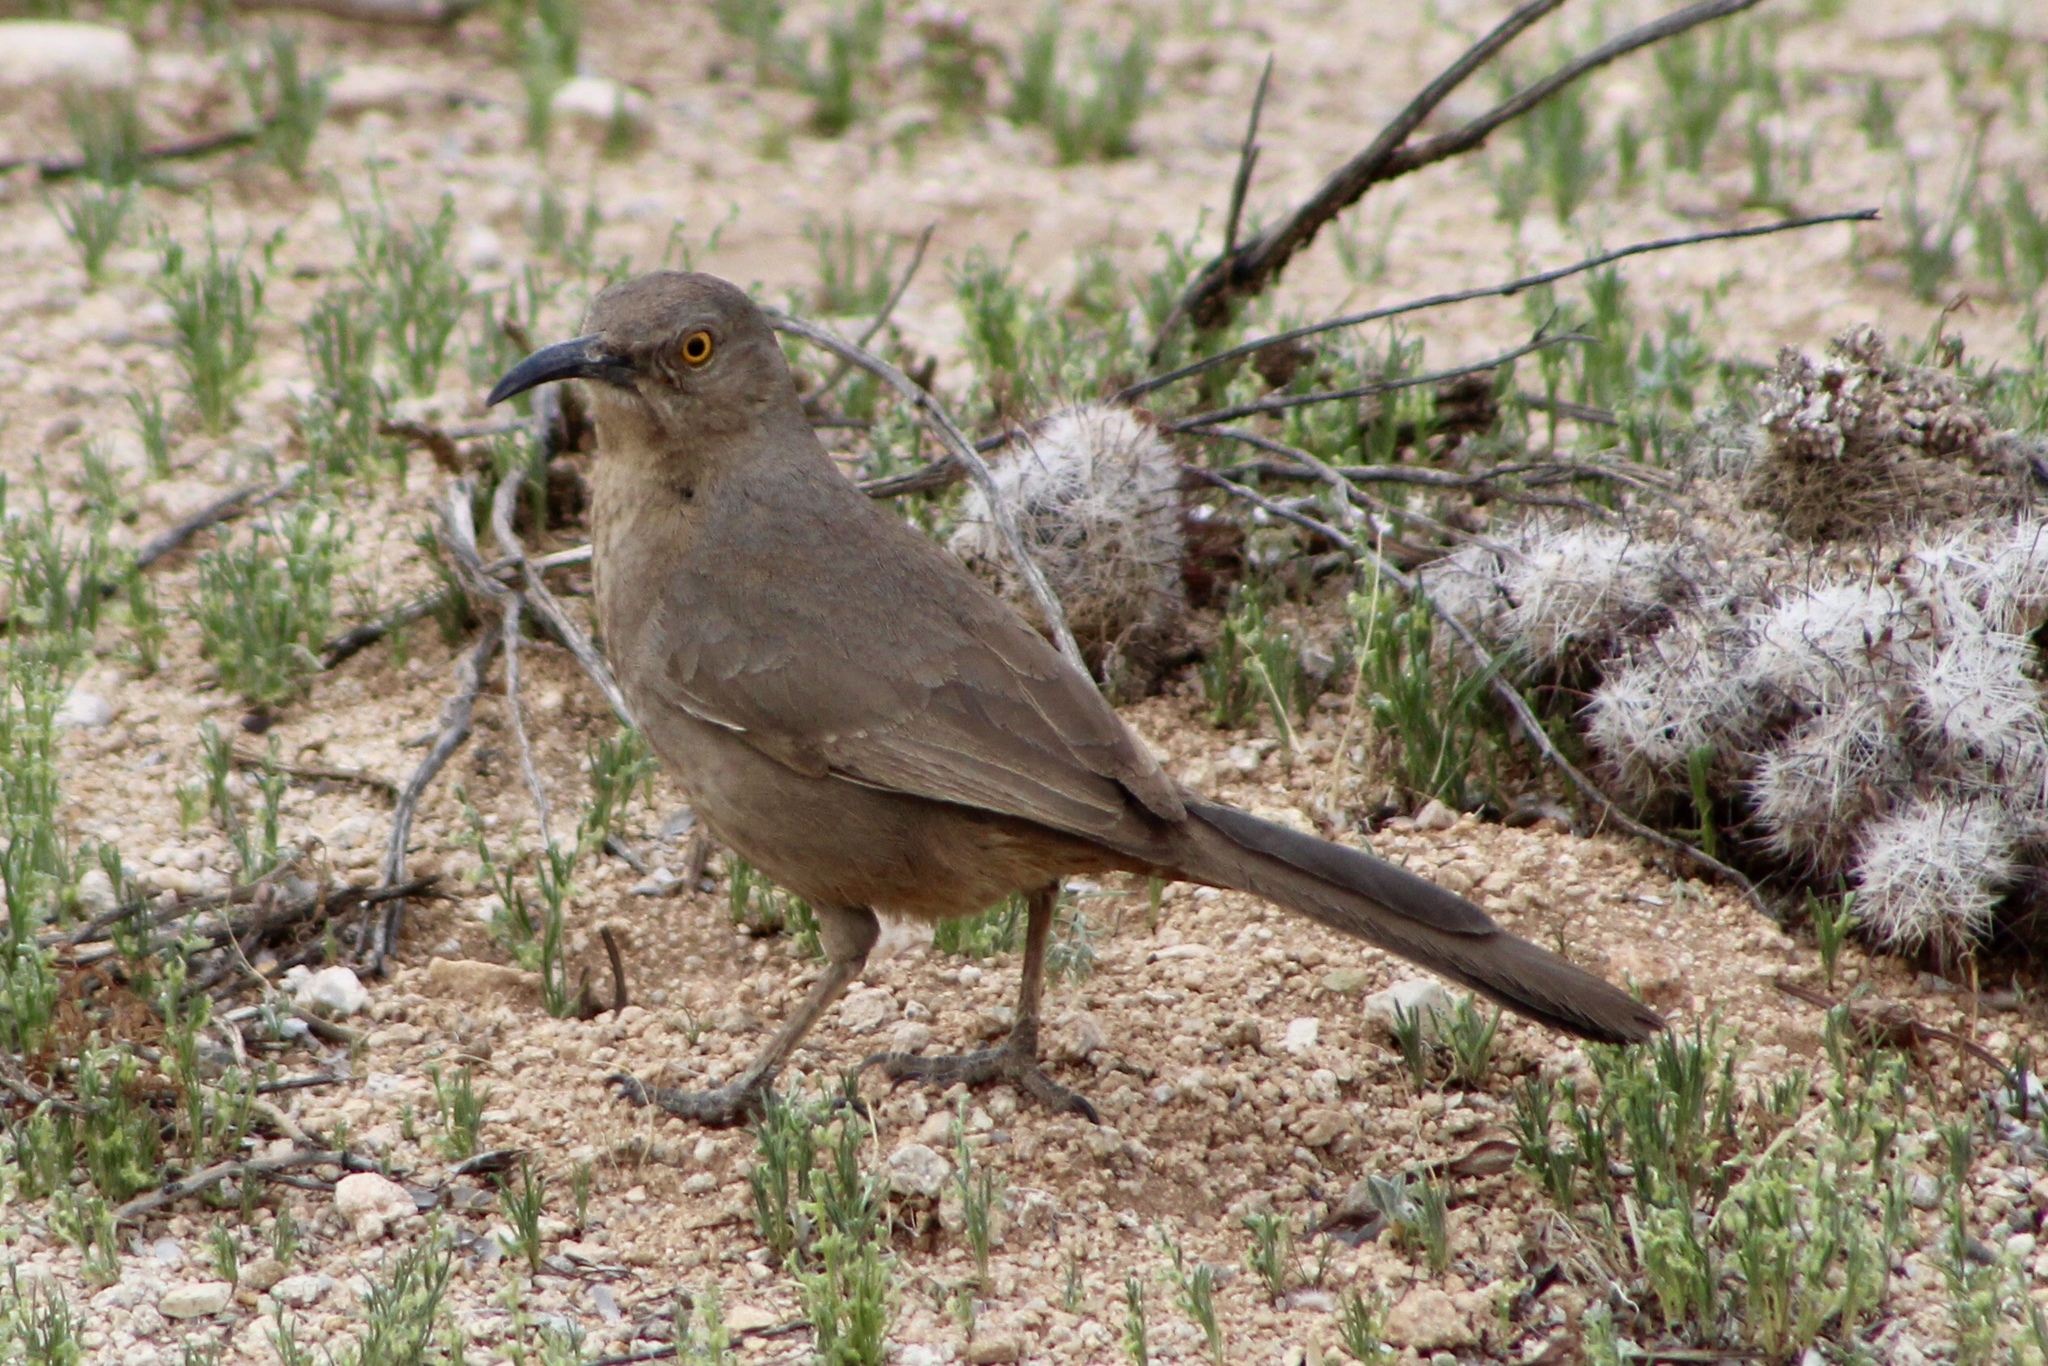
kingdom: Animalia
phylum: Chordata
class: Aves
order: Passeriformes
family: Mimidae
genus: Toxostoma
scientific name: Toxostoma curvirostre
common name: Curve-billed thrasher
